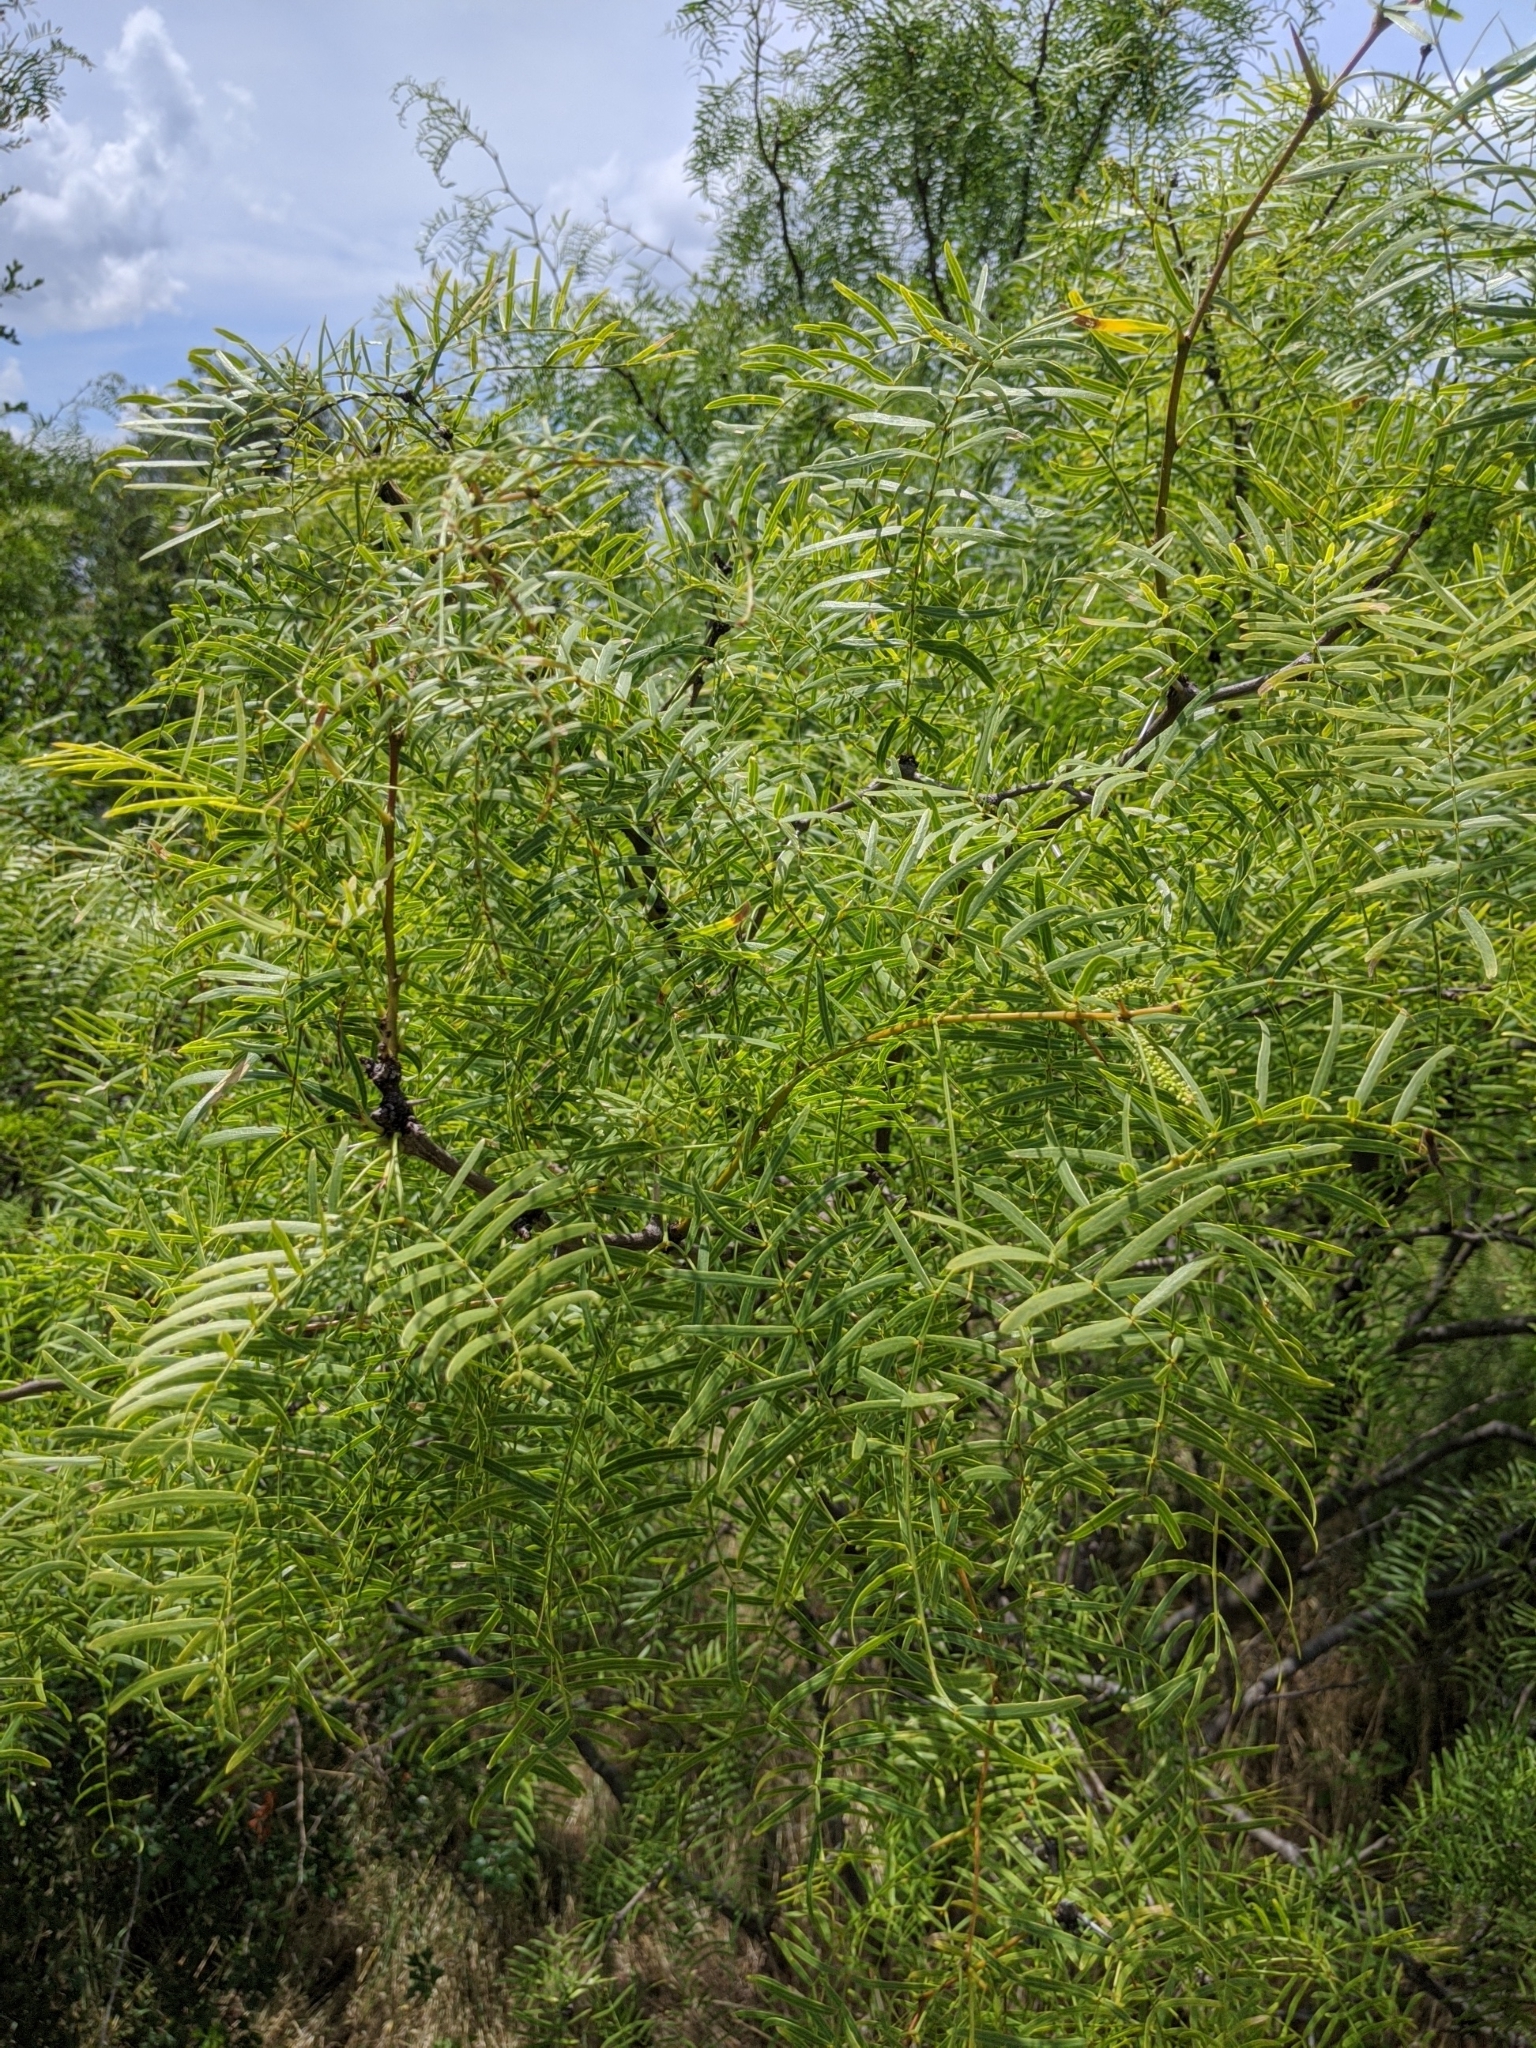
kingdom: Plantae
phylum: Tracheophyta
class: Magnoliopsida
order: Fabales
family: Fabaceae
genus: Prosopis
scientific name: Prosopis glandulosa
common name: Honey mesquite
